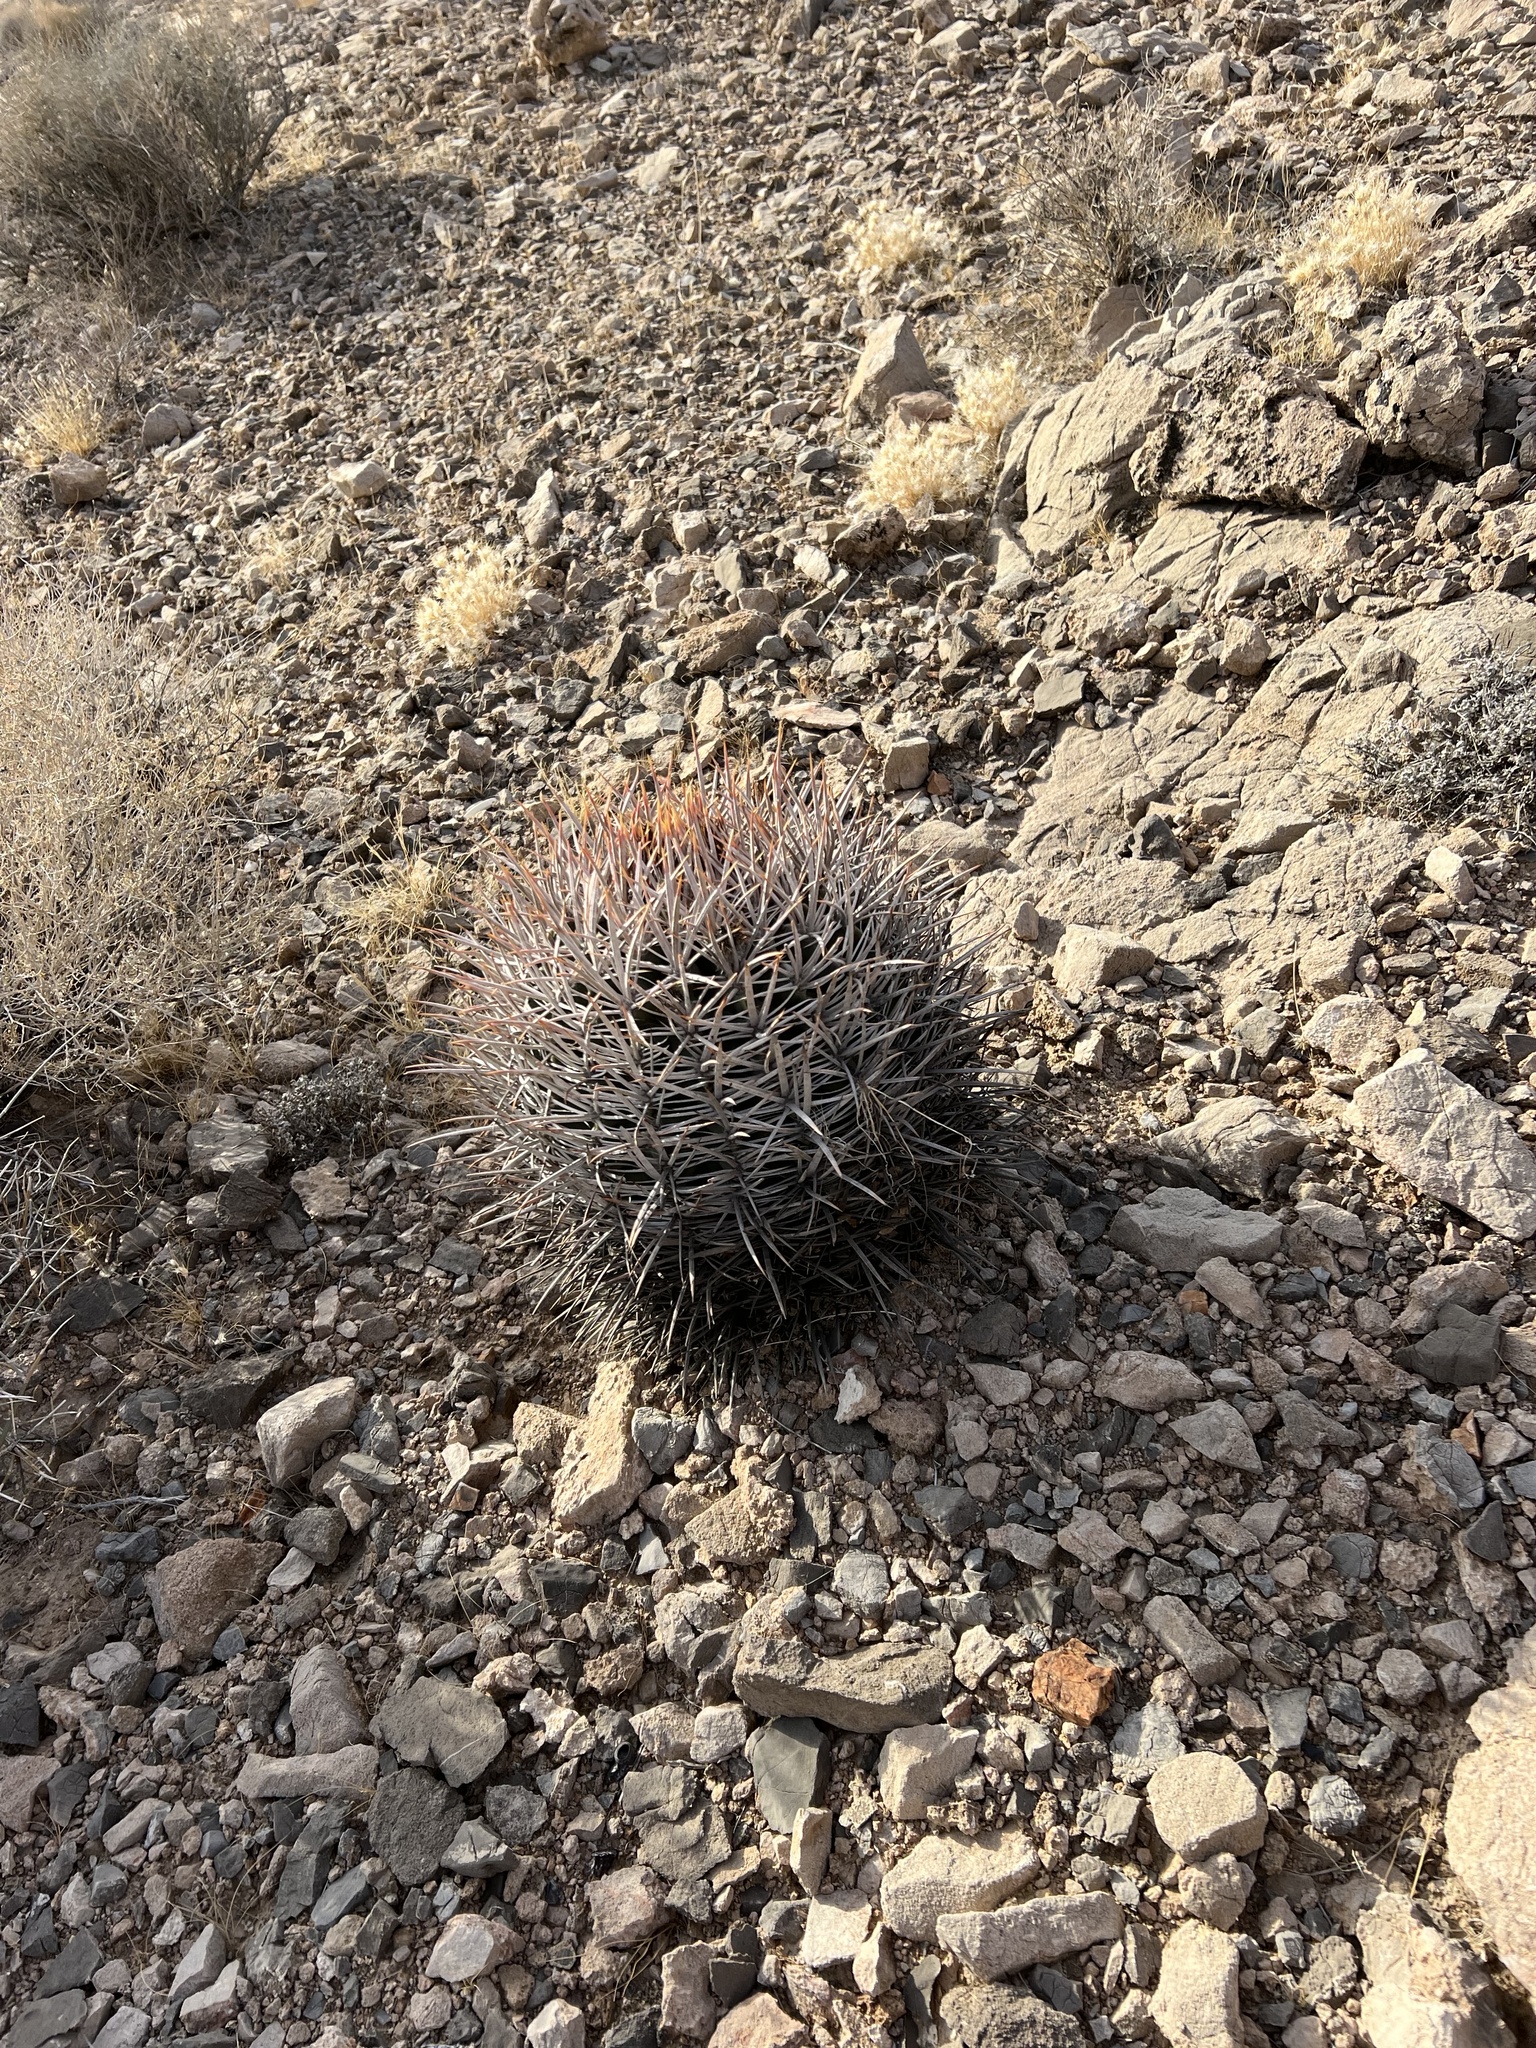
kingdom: Plantae
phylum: Tracheophyta
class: Magnoliopsida
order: Caryophyllales
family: Cactaceae
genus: Echinocactus
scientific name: Echinocactus polycephalus
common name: Cottontop cactus
